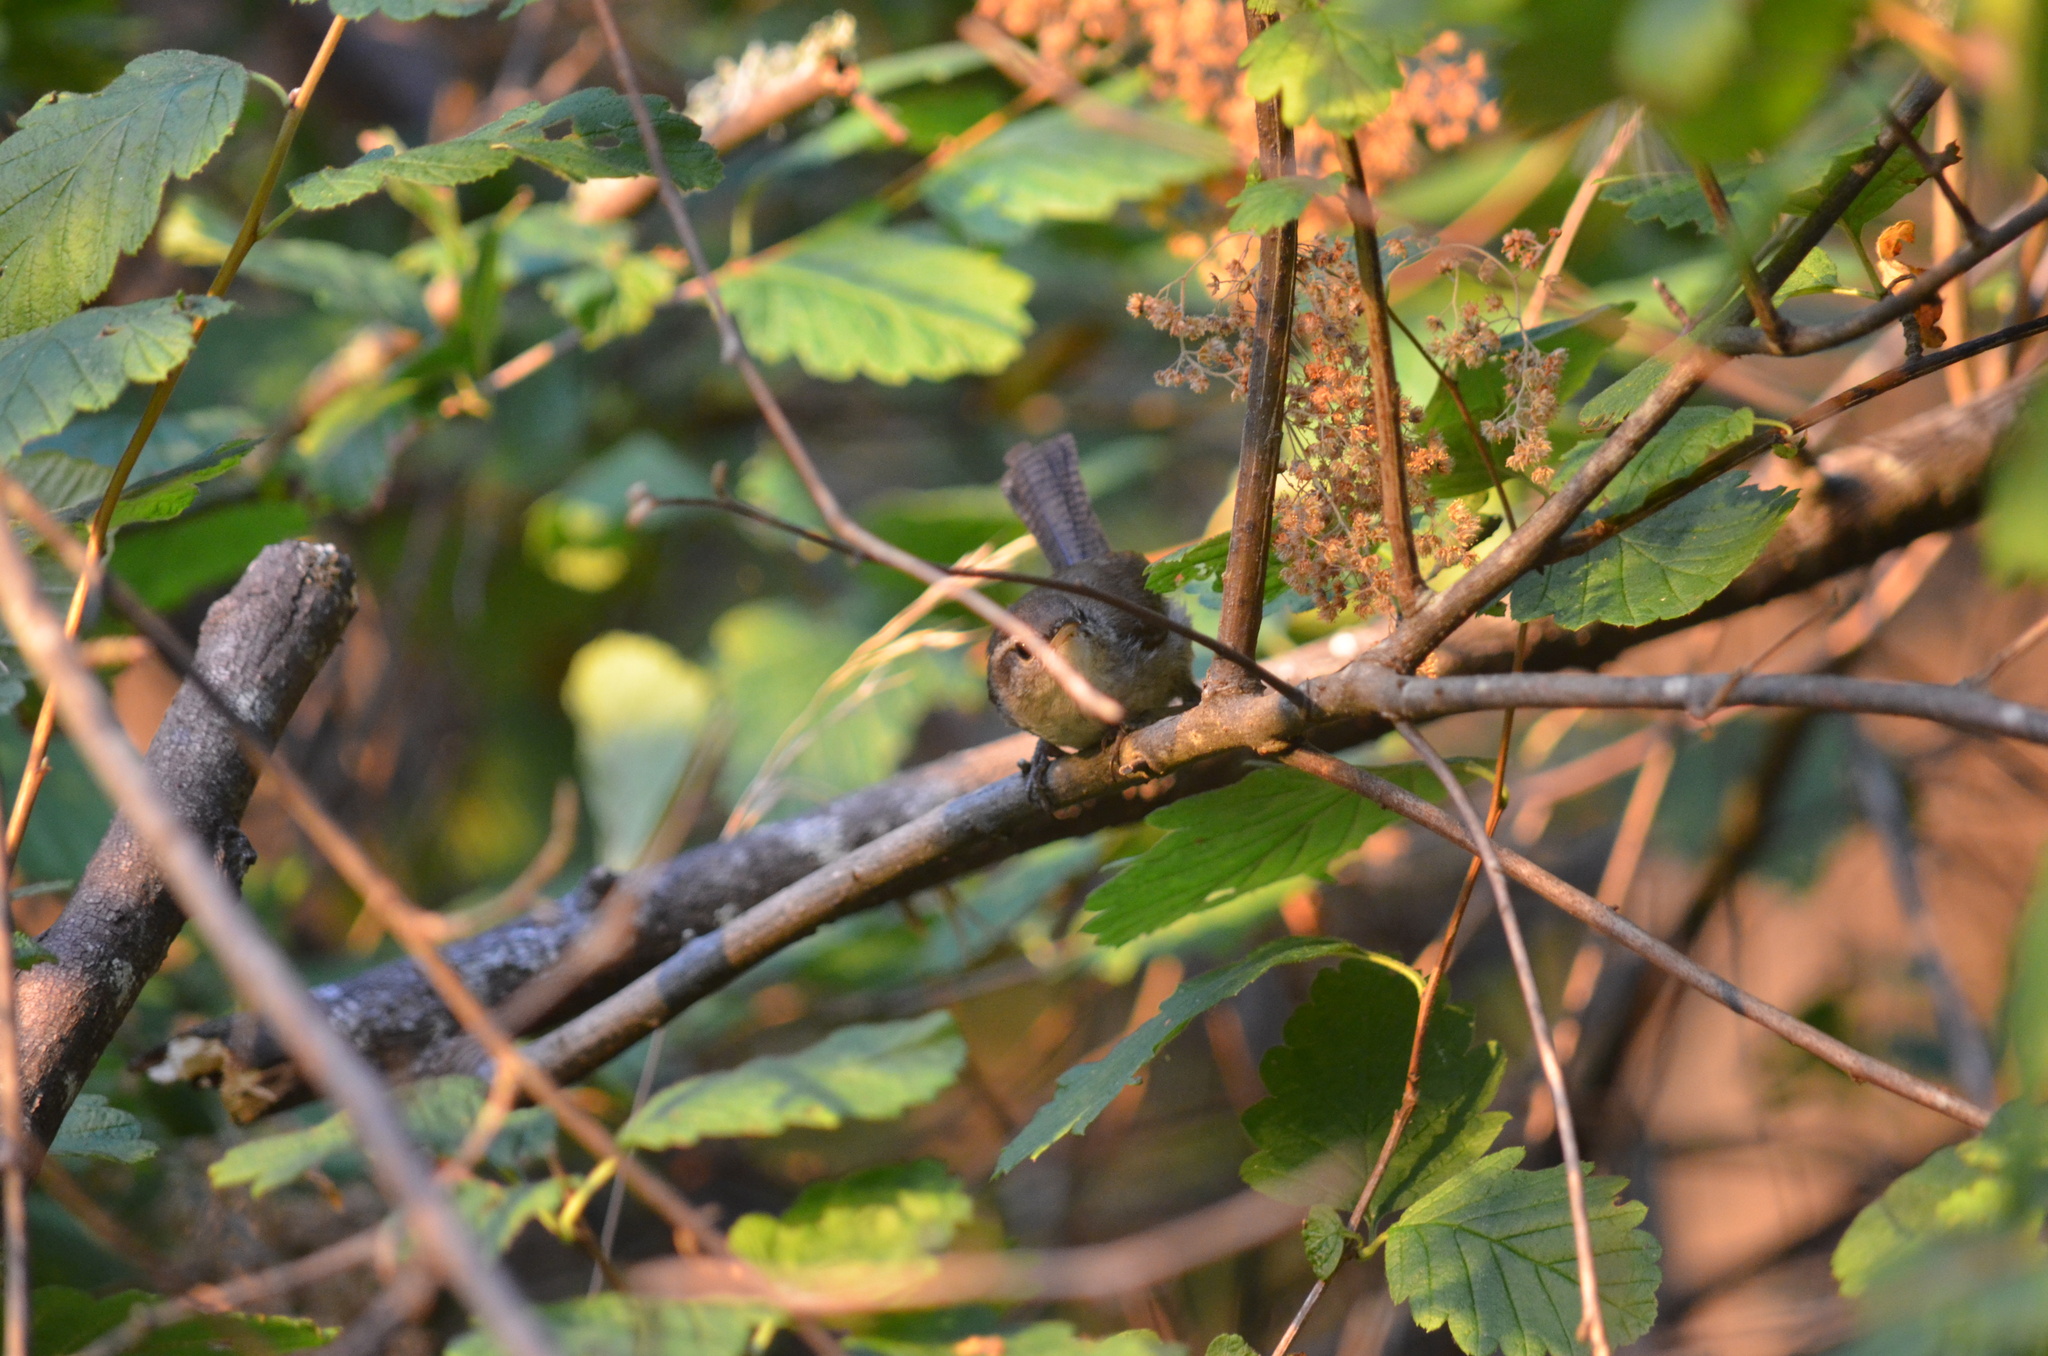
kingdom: Animalia
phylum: Chordata
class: Aves
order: Passeriformes
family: Troglodytidae
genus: Thryomanes
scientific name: Thryomanes bewickii
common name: Bewick's wren
